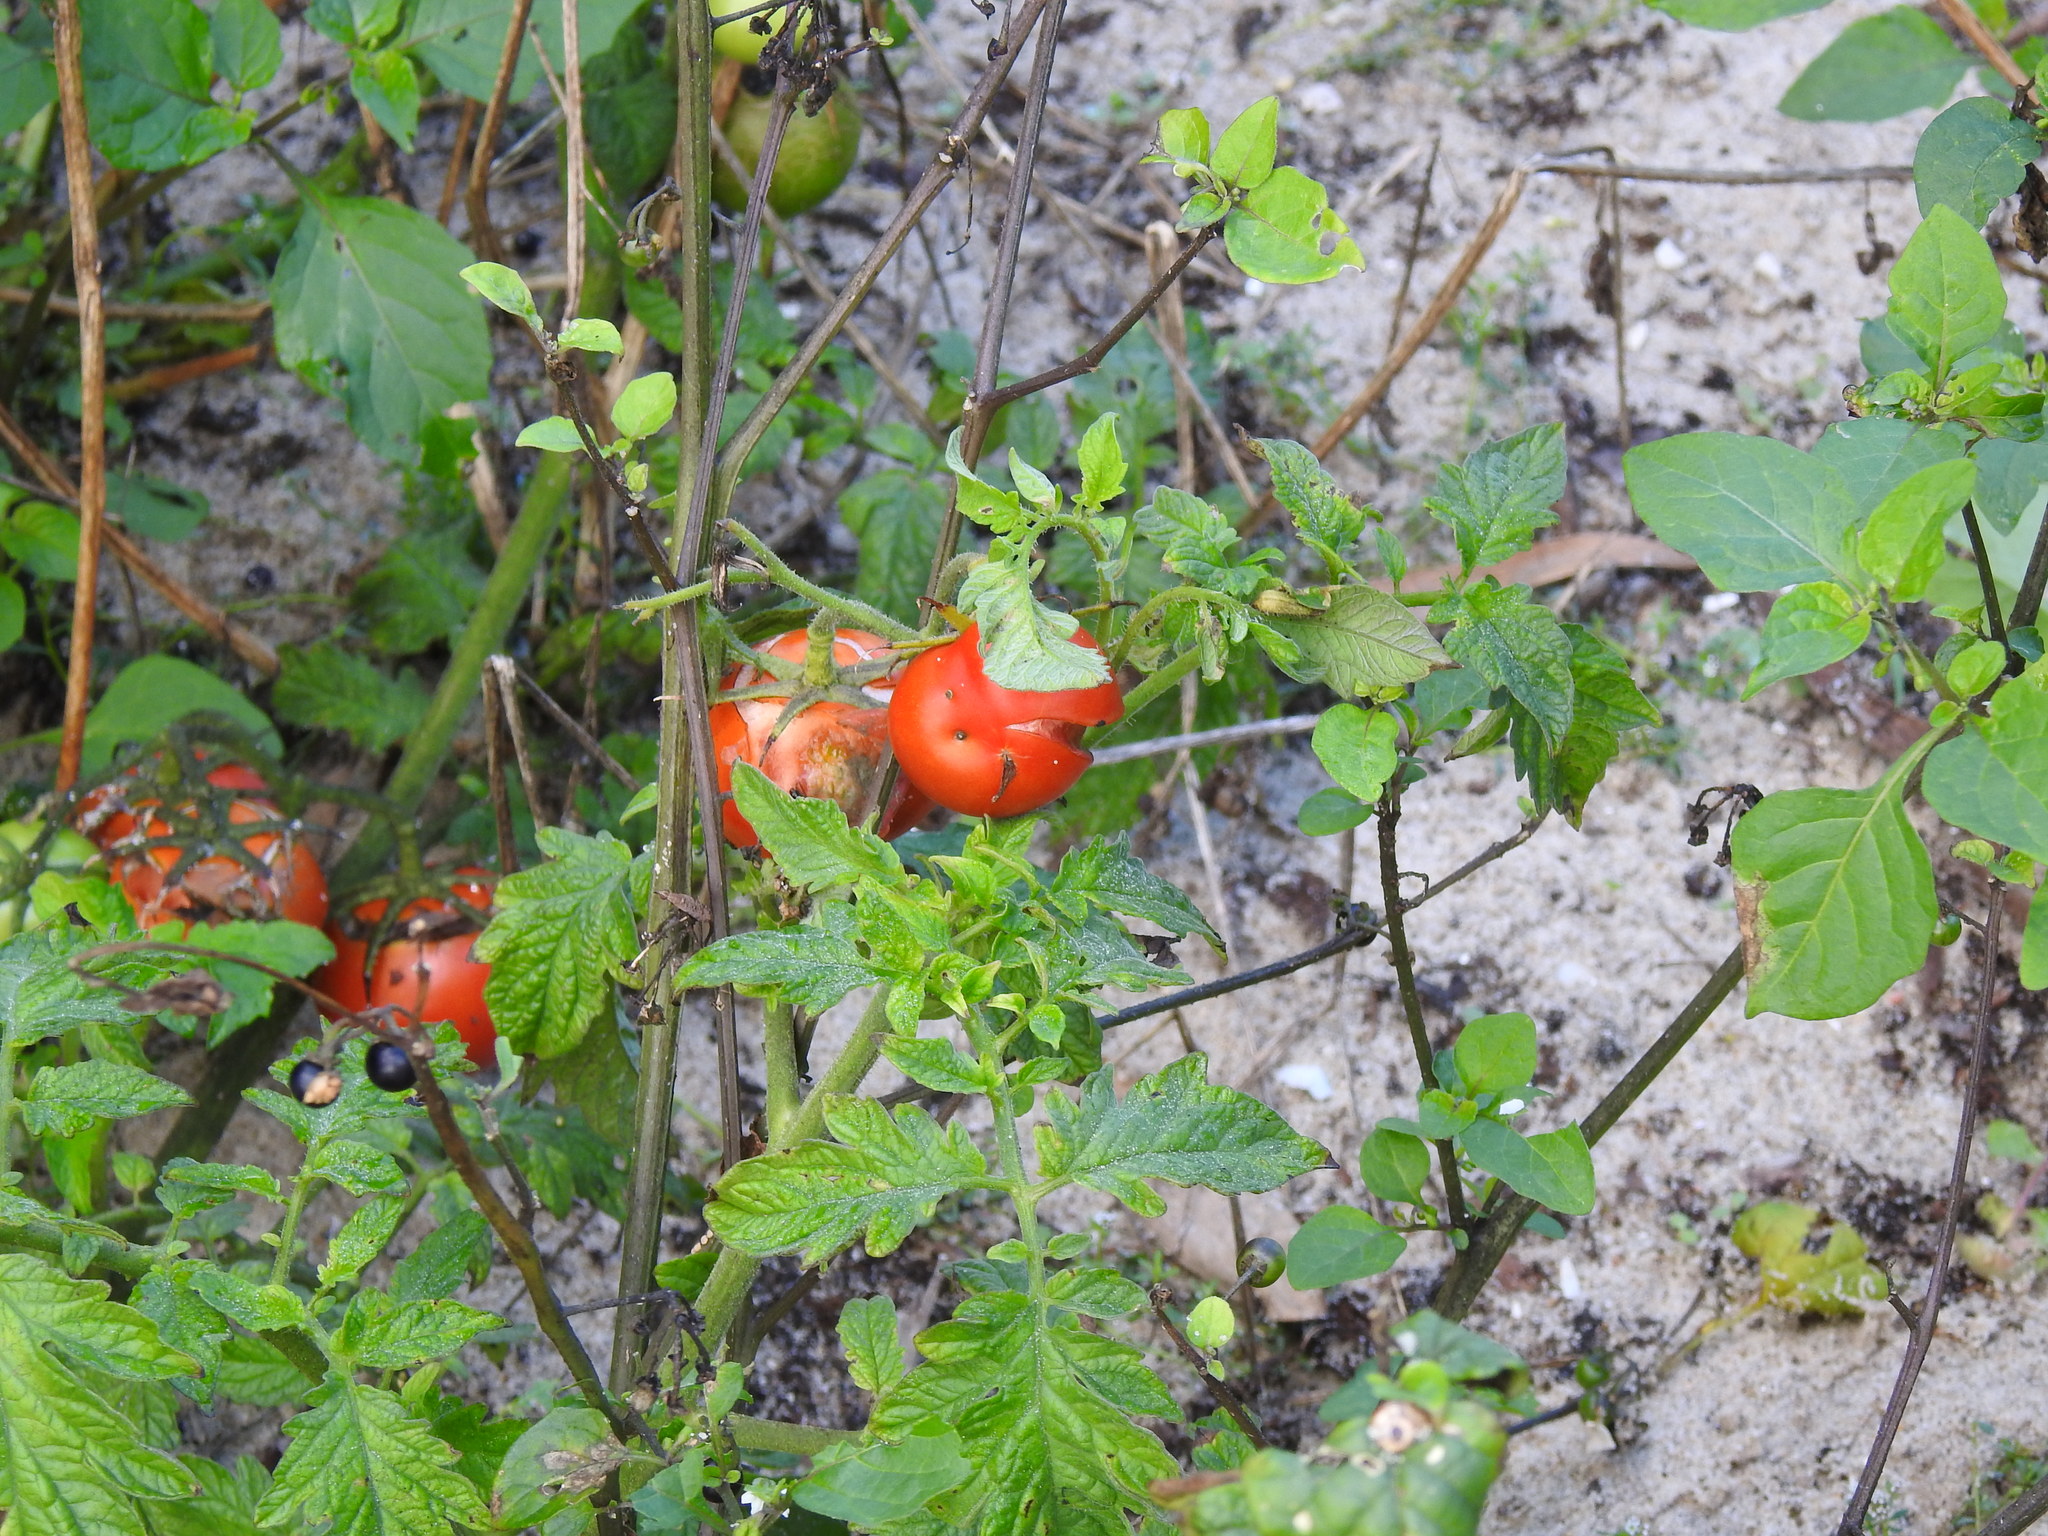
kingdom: Plantae
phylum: Tracheophyta
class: Magnoliopsida
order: Solanales
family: Solanaceae
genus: Solanum
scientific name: Solanum lycopersicum
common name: Garden tomato
